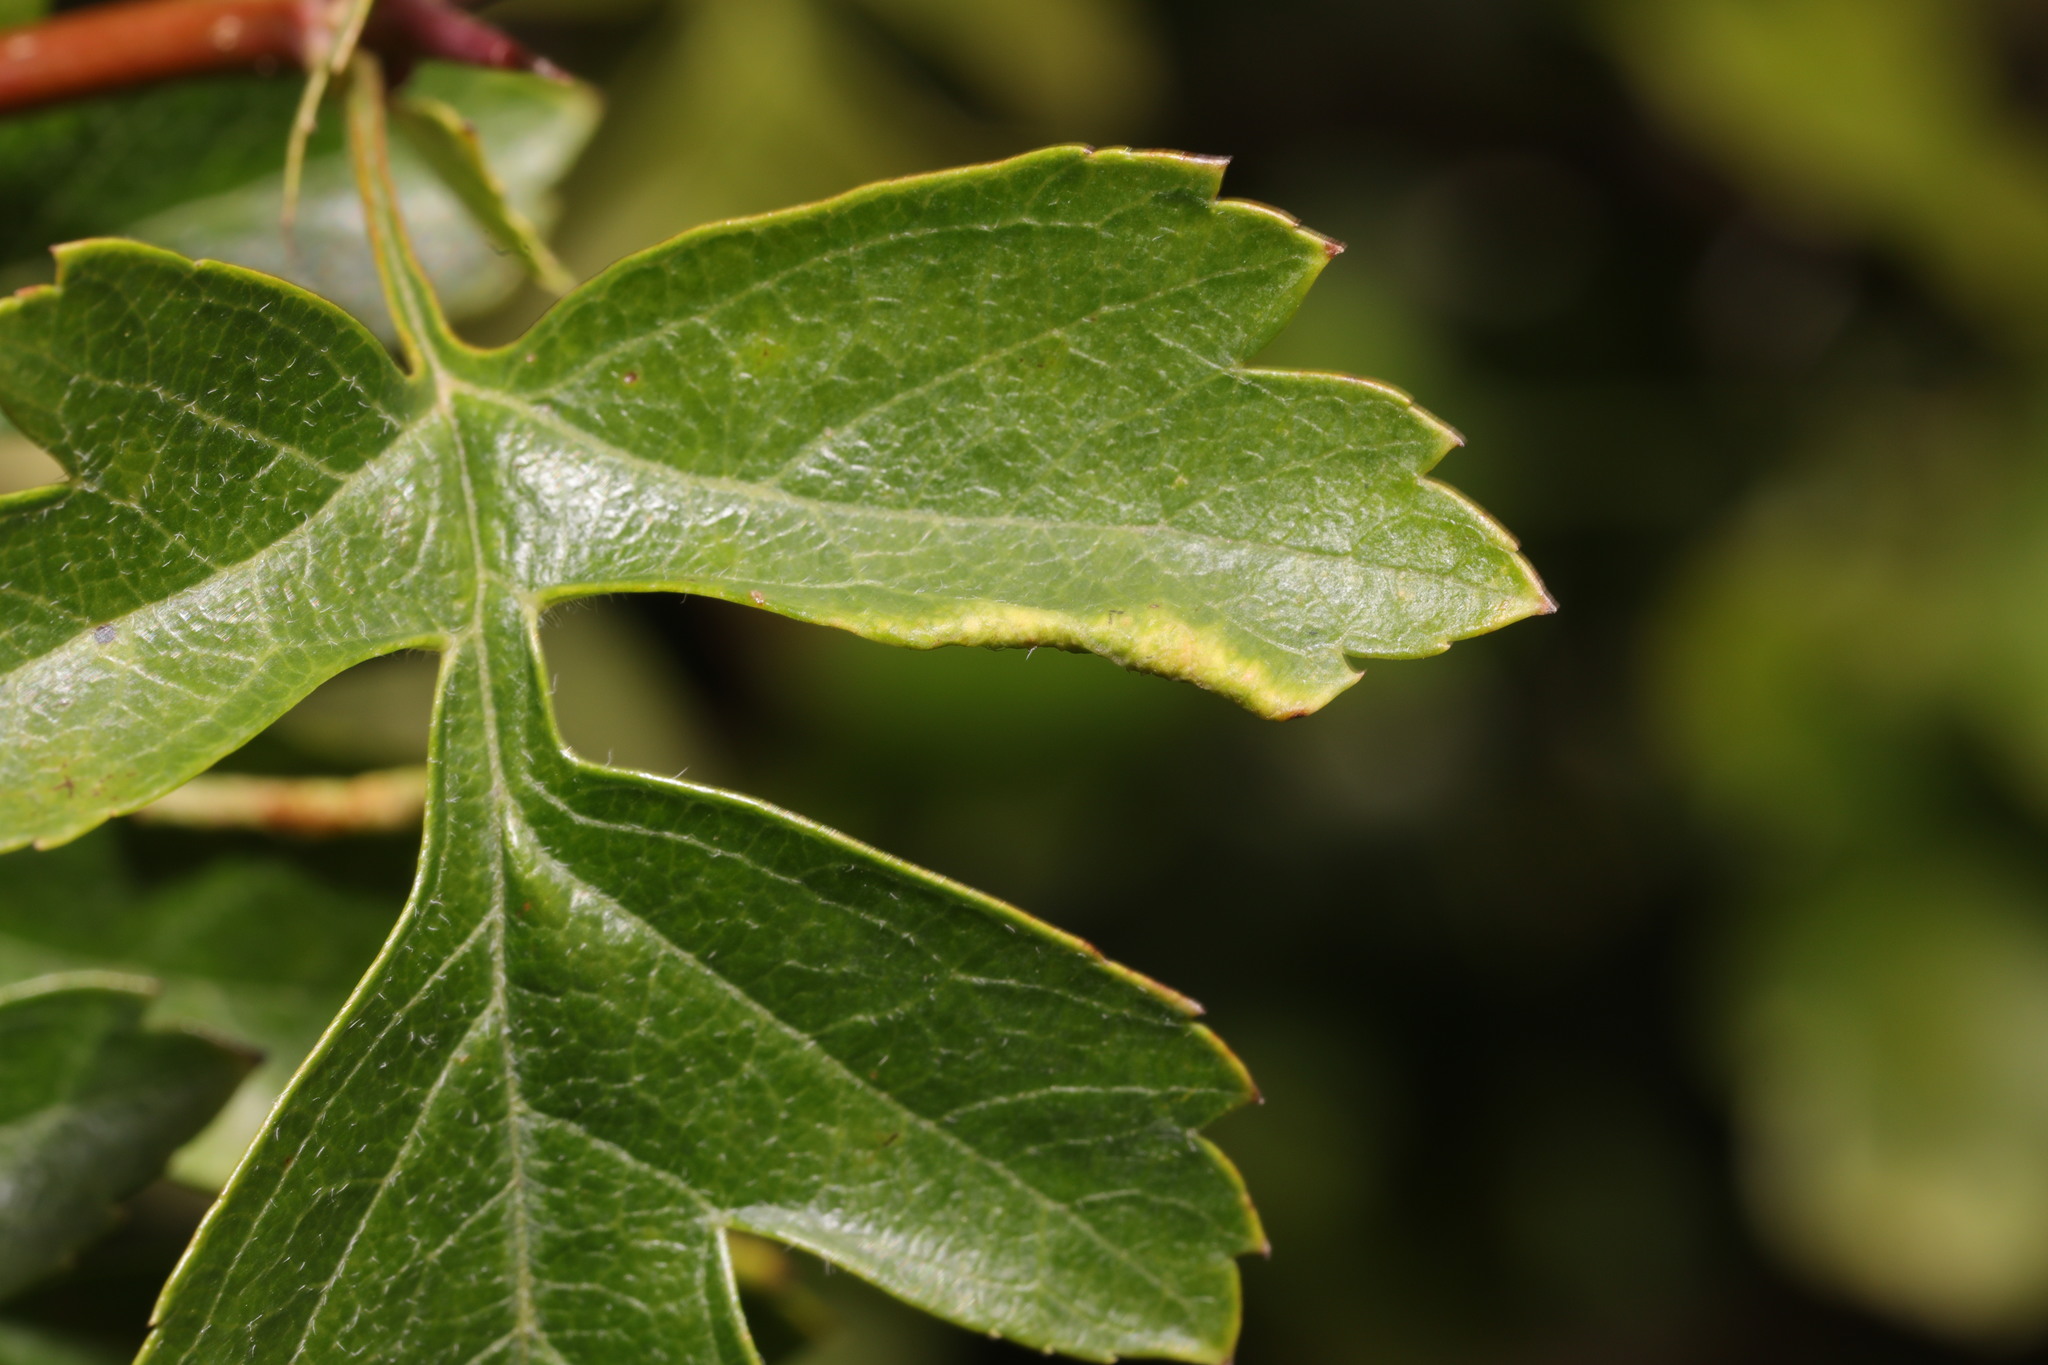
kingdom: Animalia
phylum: Arthropoda
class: Arachnida
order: Trombidiformes
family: Eriophyidae
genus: Phyllocoptes
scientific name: Phyllocoptes goniothorax
